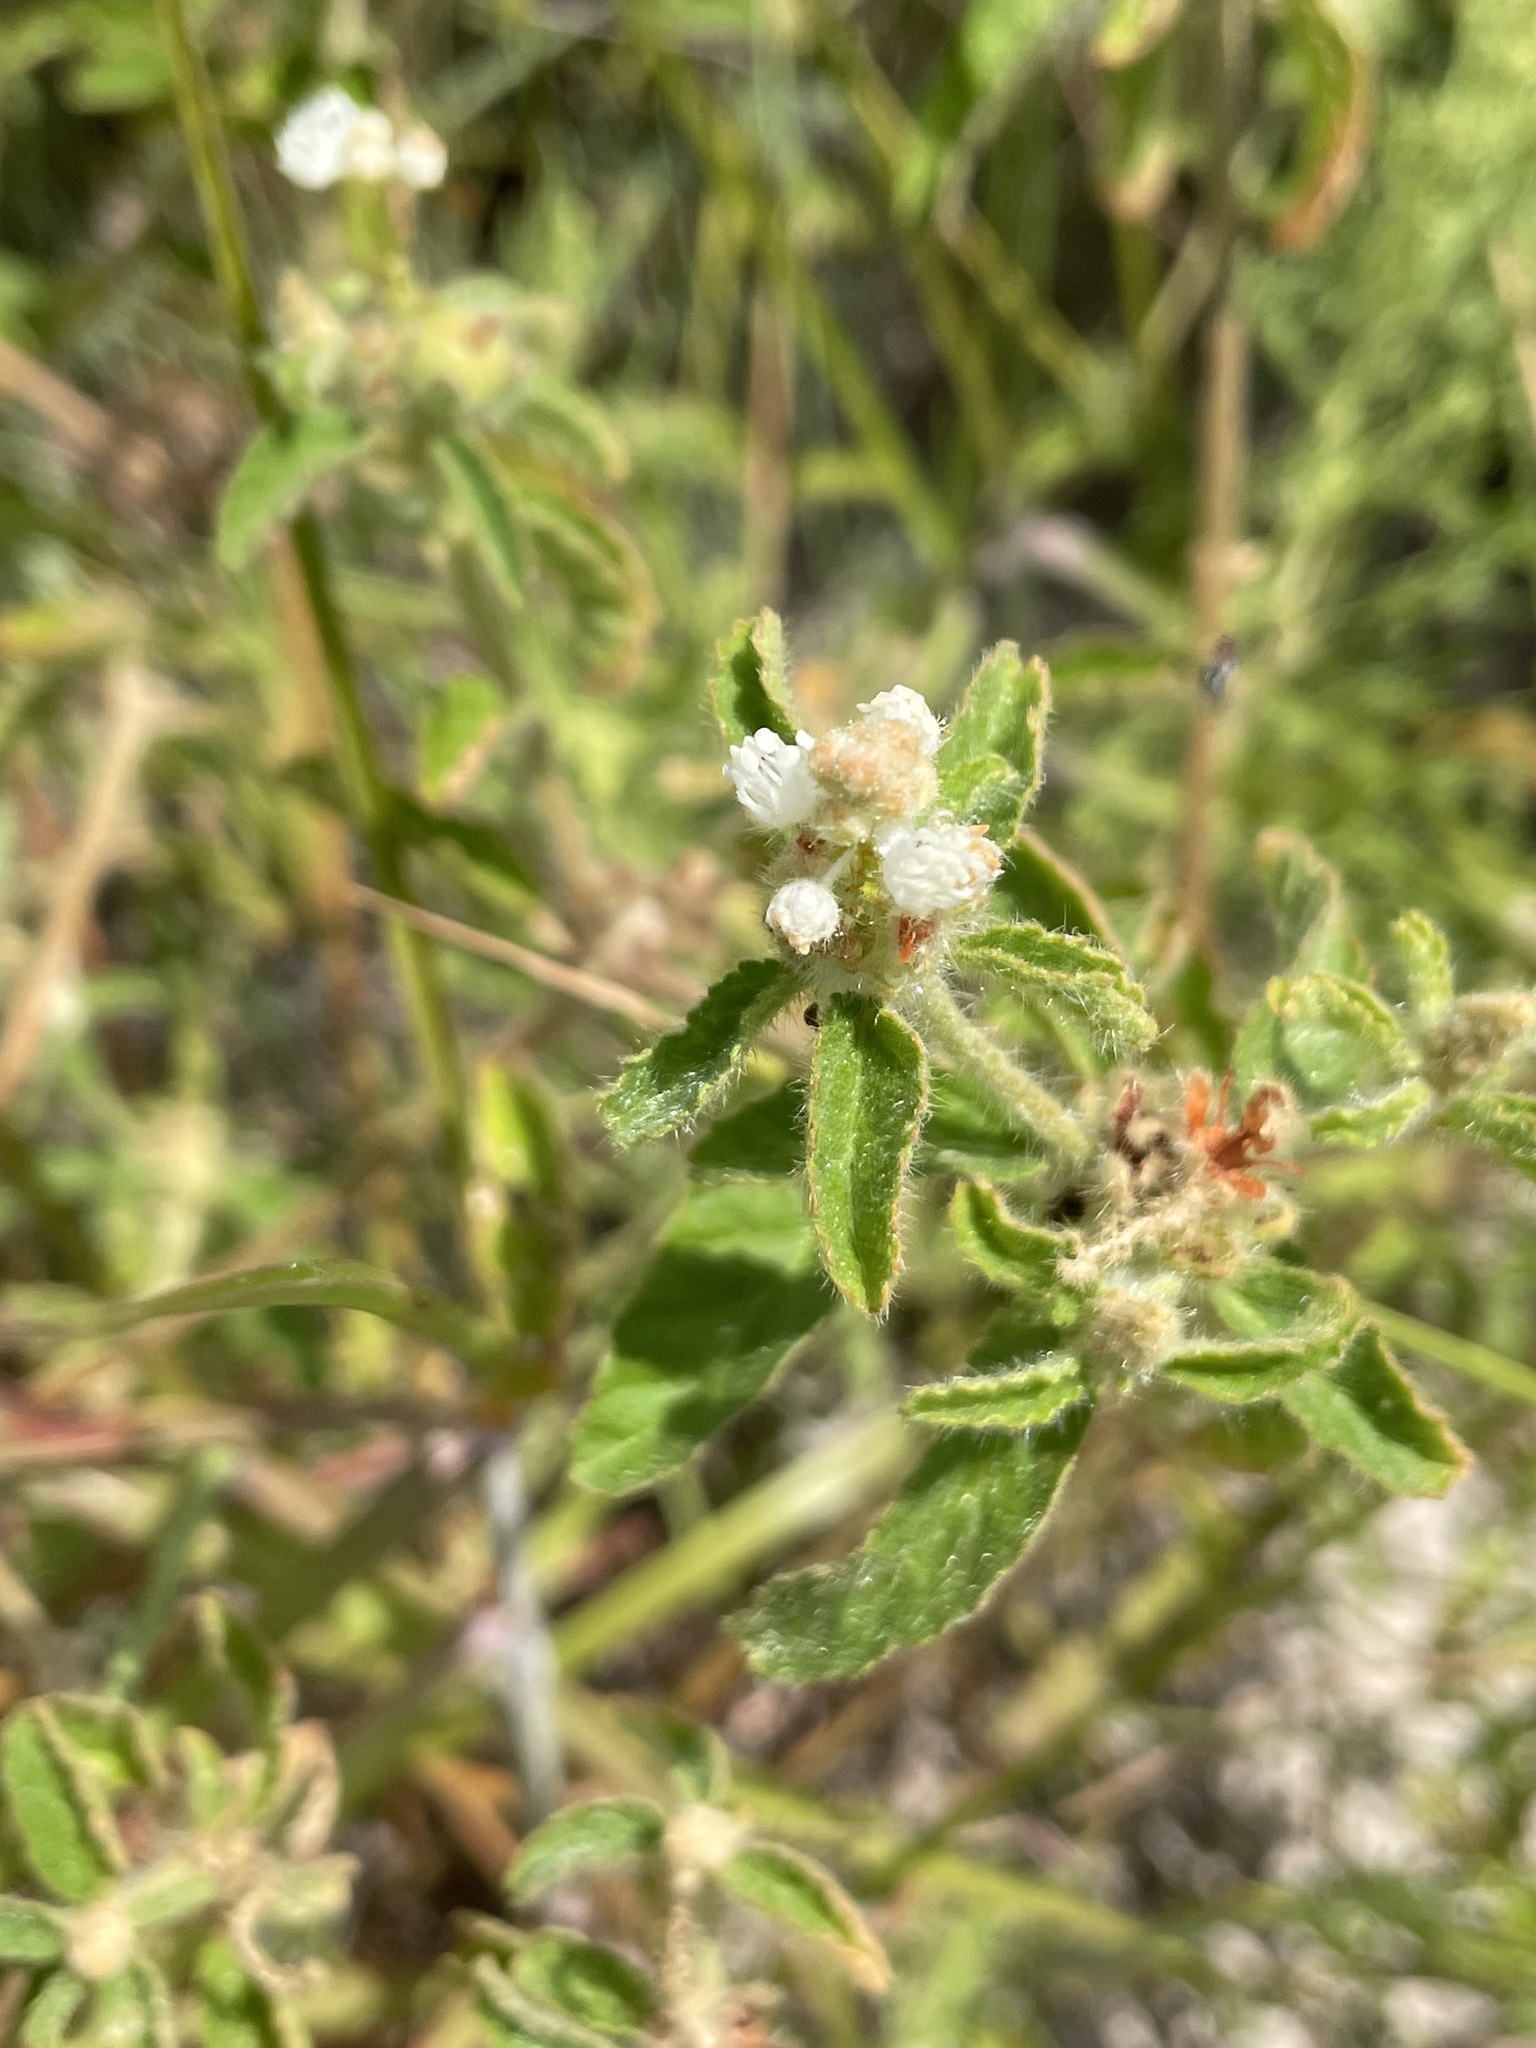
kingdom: Plantae
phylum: Tracheophyta
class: Magnoliopsida
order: Malpighiales
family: Euphorbiaceae
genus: Croton
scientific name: Croton glandulosus
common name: Tropic croton
